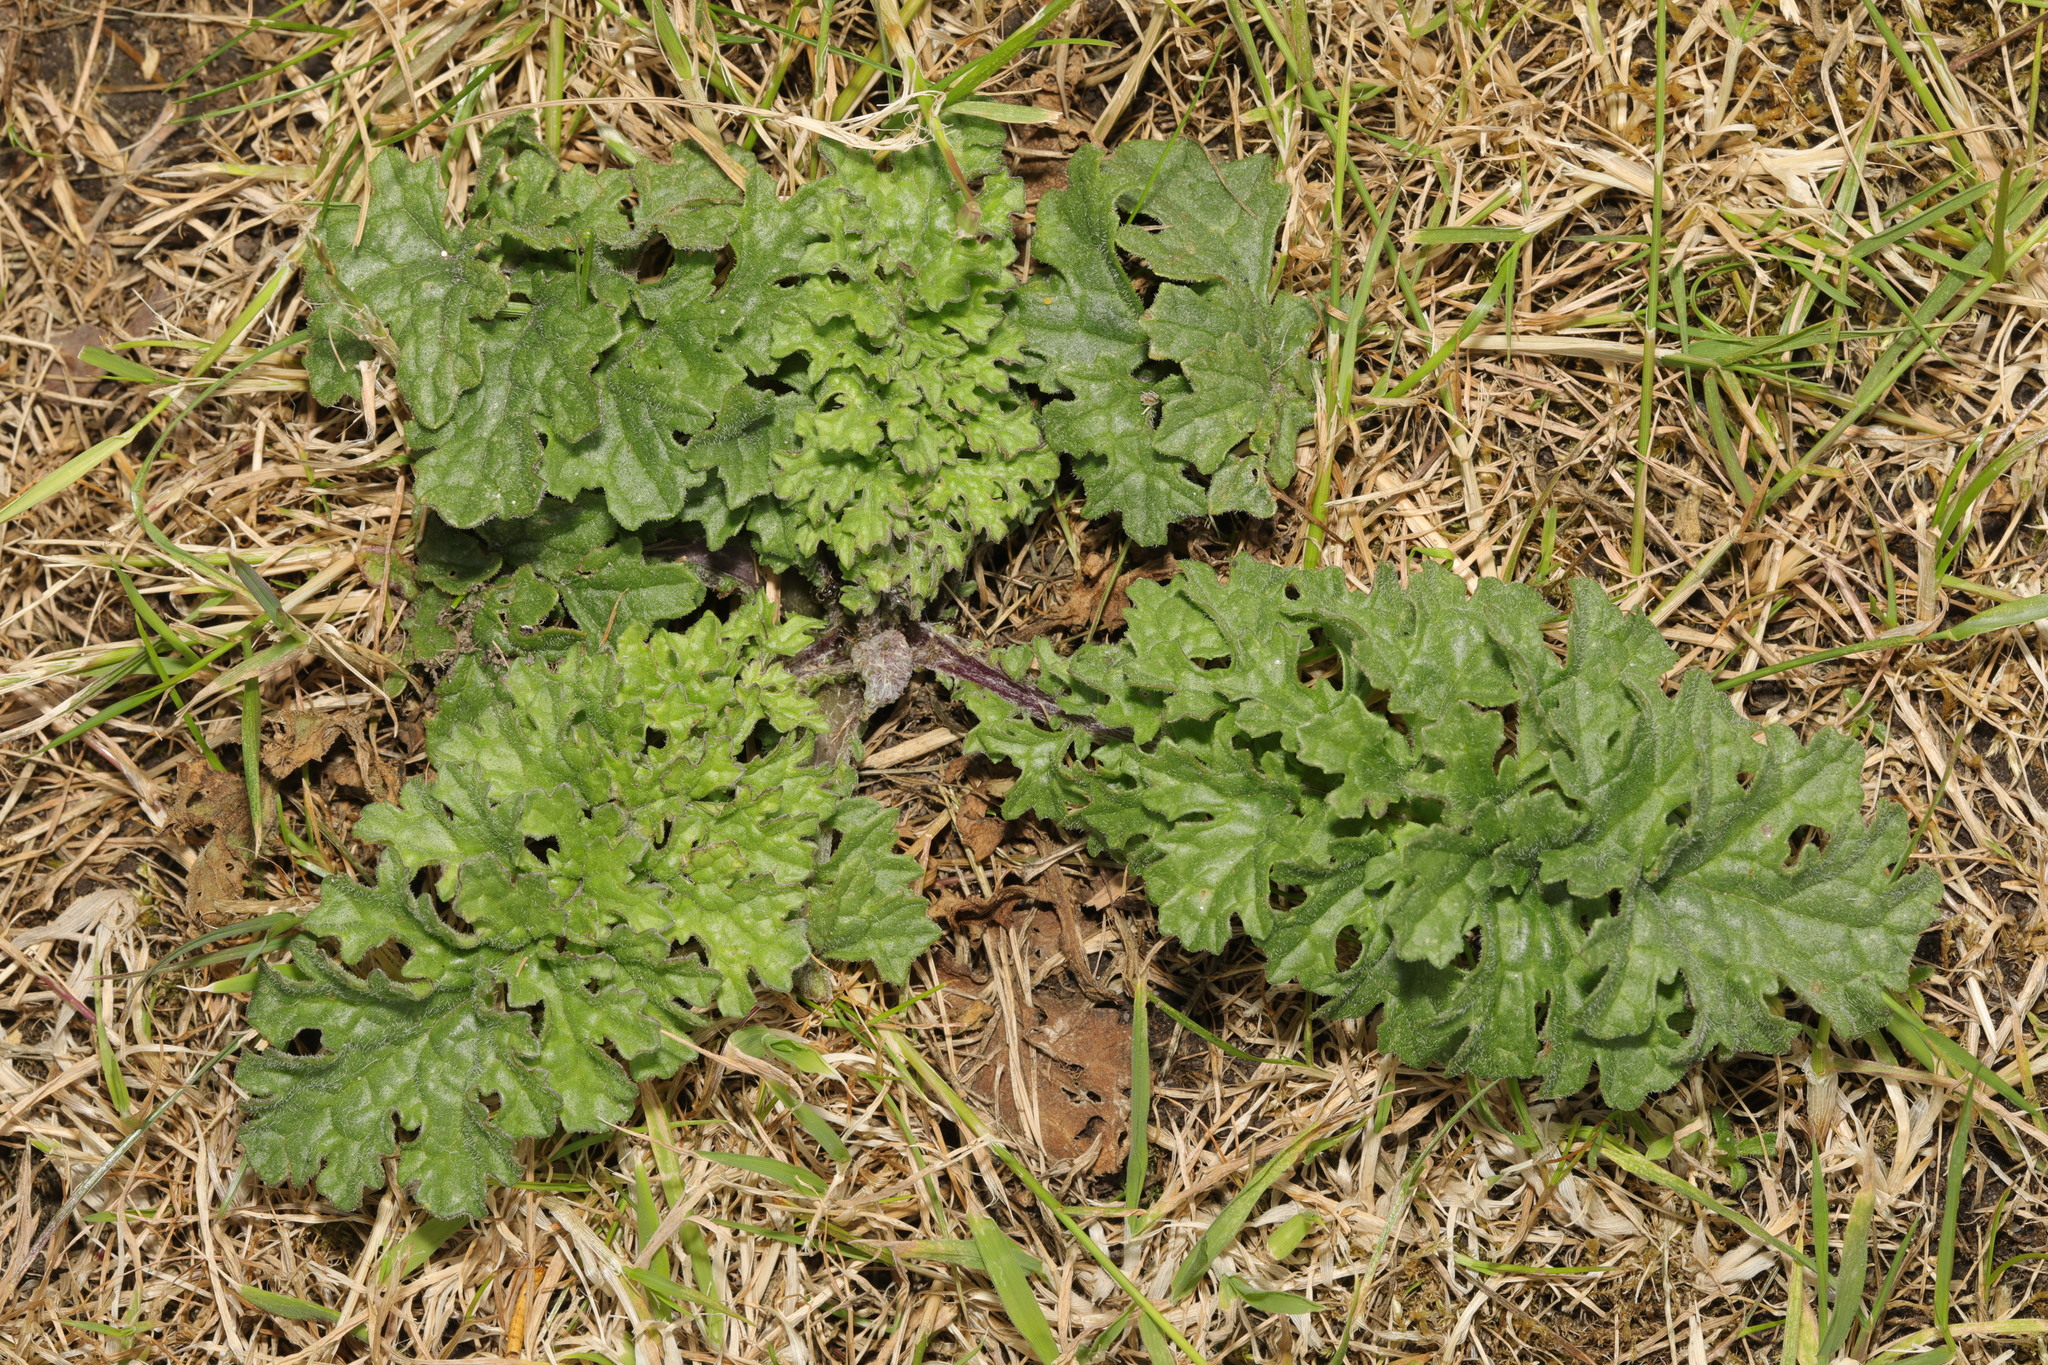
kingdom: Plantae
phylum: Tracheophyta
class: Magnoliopsida
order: Asterales
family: Asteraceae
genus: Jacobaea
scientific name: Jacobaea vulgaris
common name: Stinking willie
